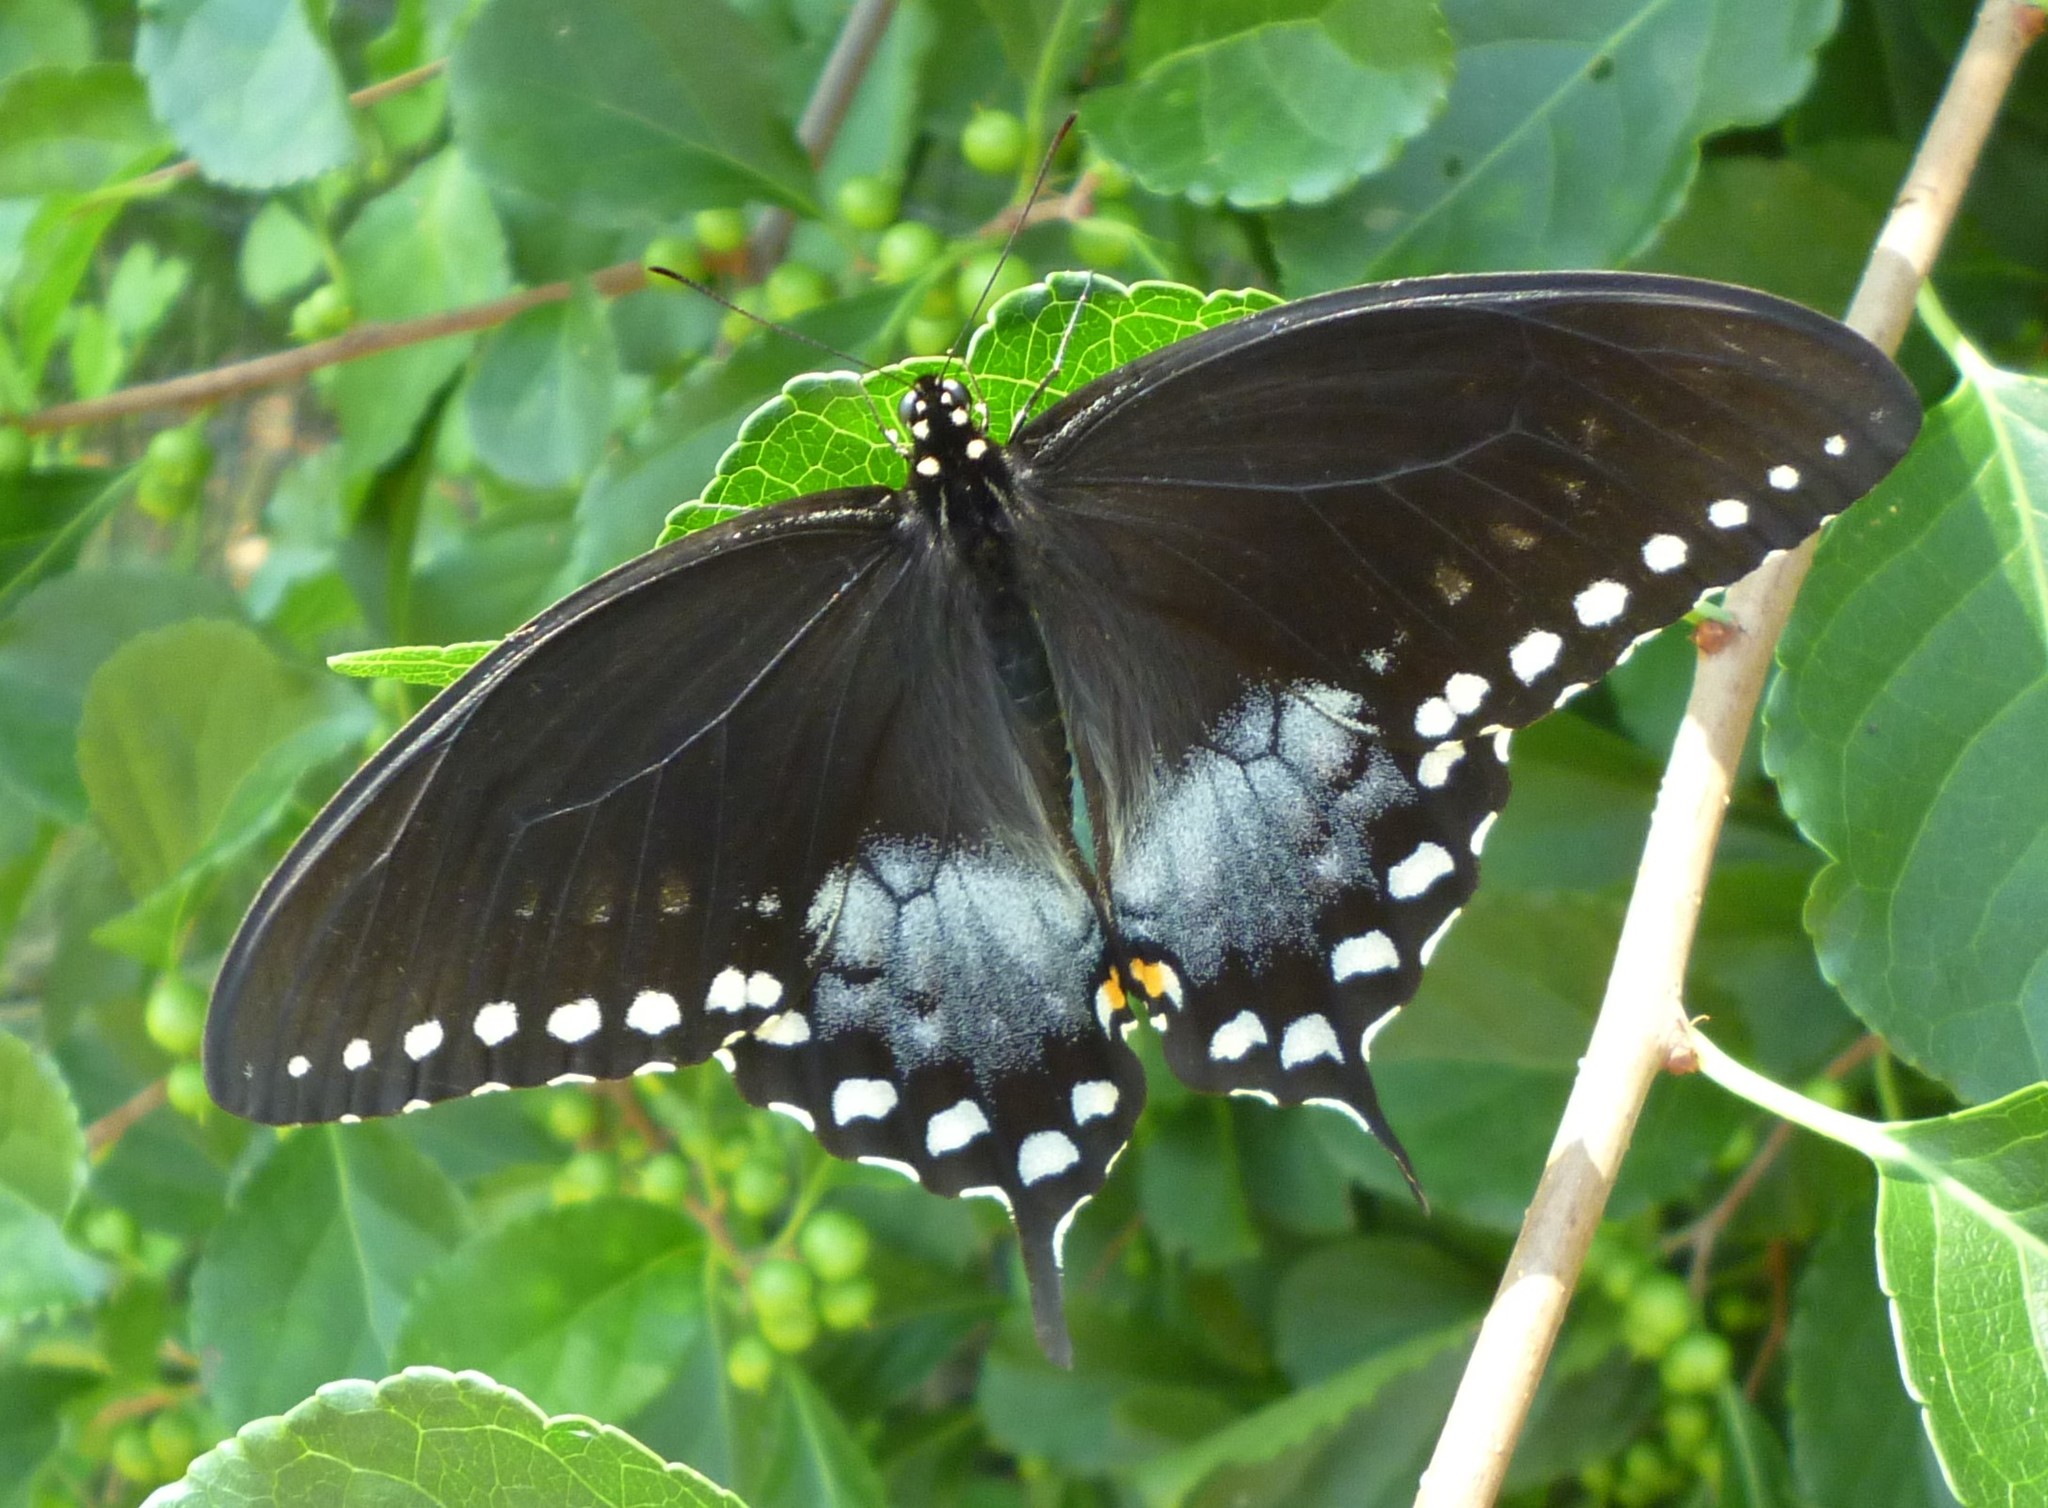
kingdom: Animalia
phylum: Arthropoda
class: Insecta
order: Lepidoptera
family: Papilionidae
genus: Papilio
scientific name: Papilio troilus
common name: Spicebush swallowtail
